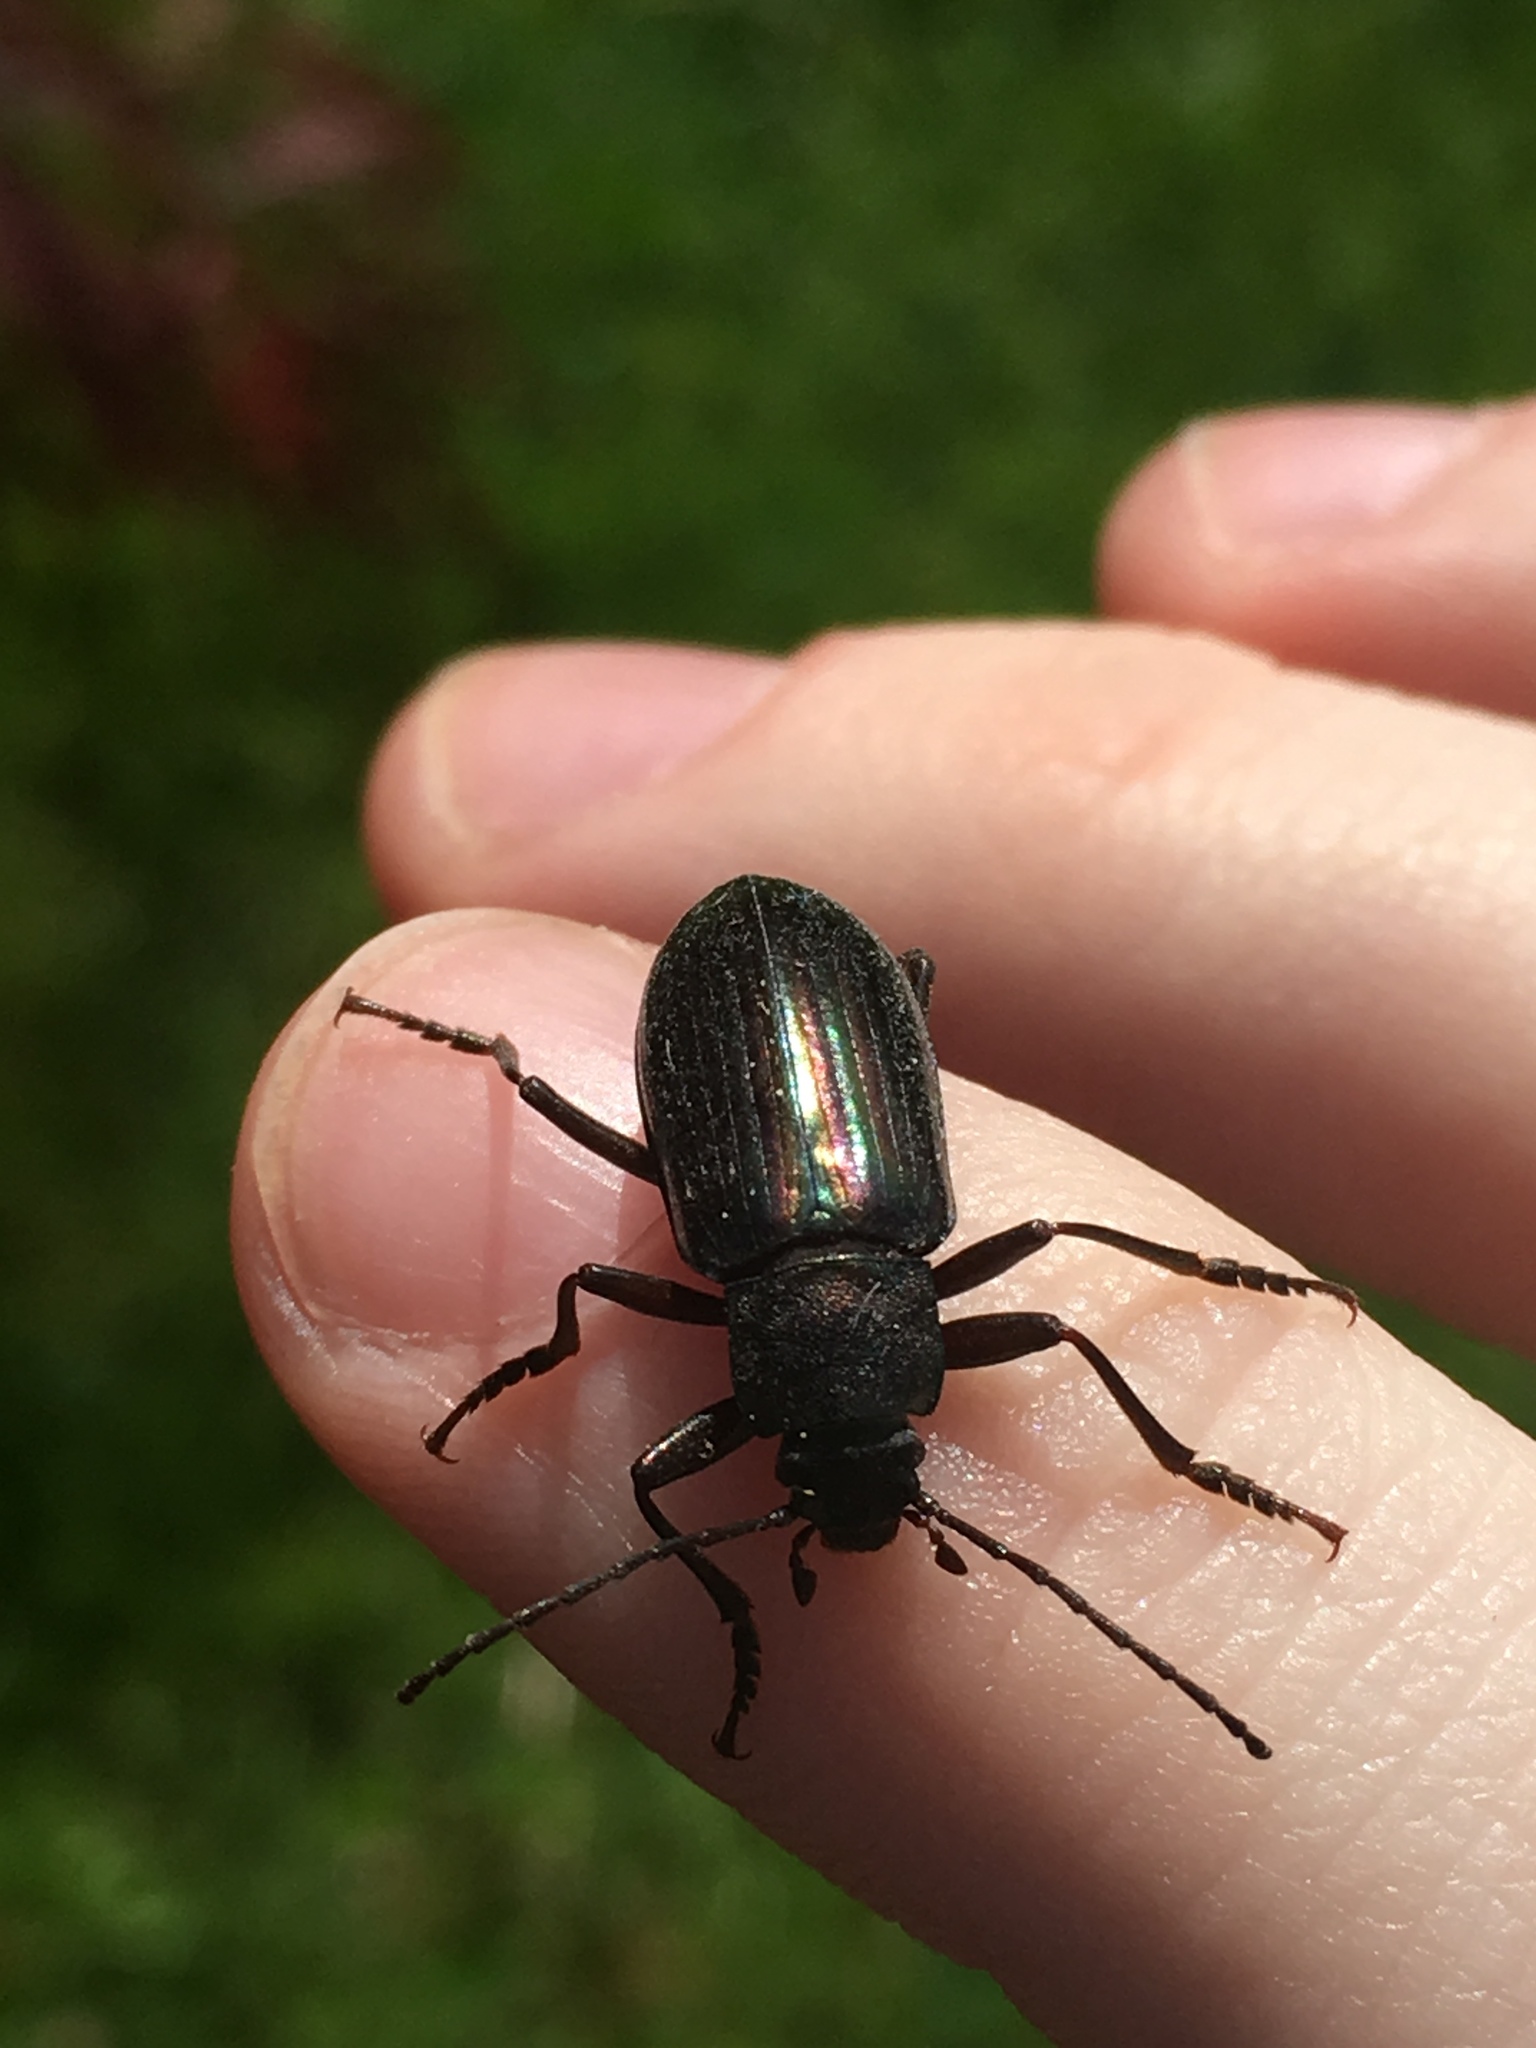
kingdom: Animalia
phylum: Arthropoda
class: Insecta
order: Coleoptera
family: Tenebrionidae
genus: Tarpela
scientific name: Tarpela micans
